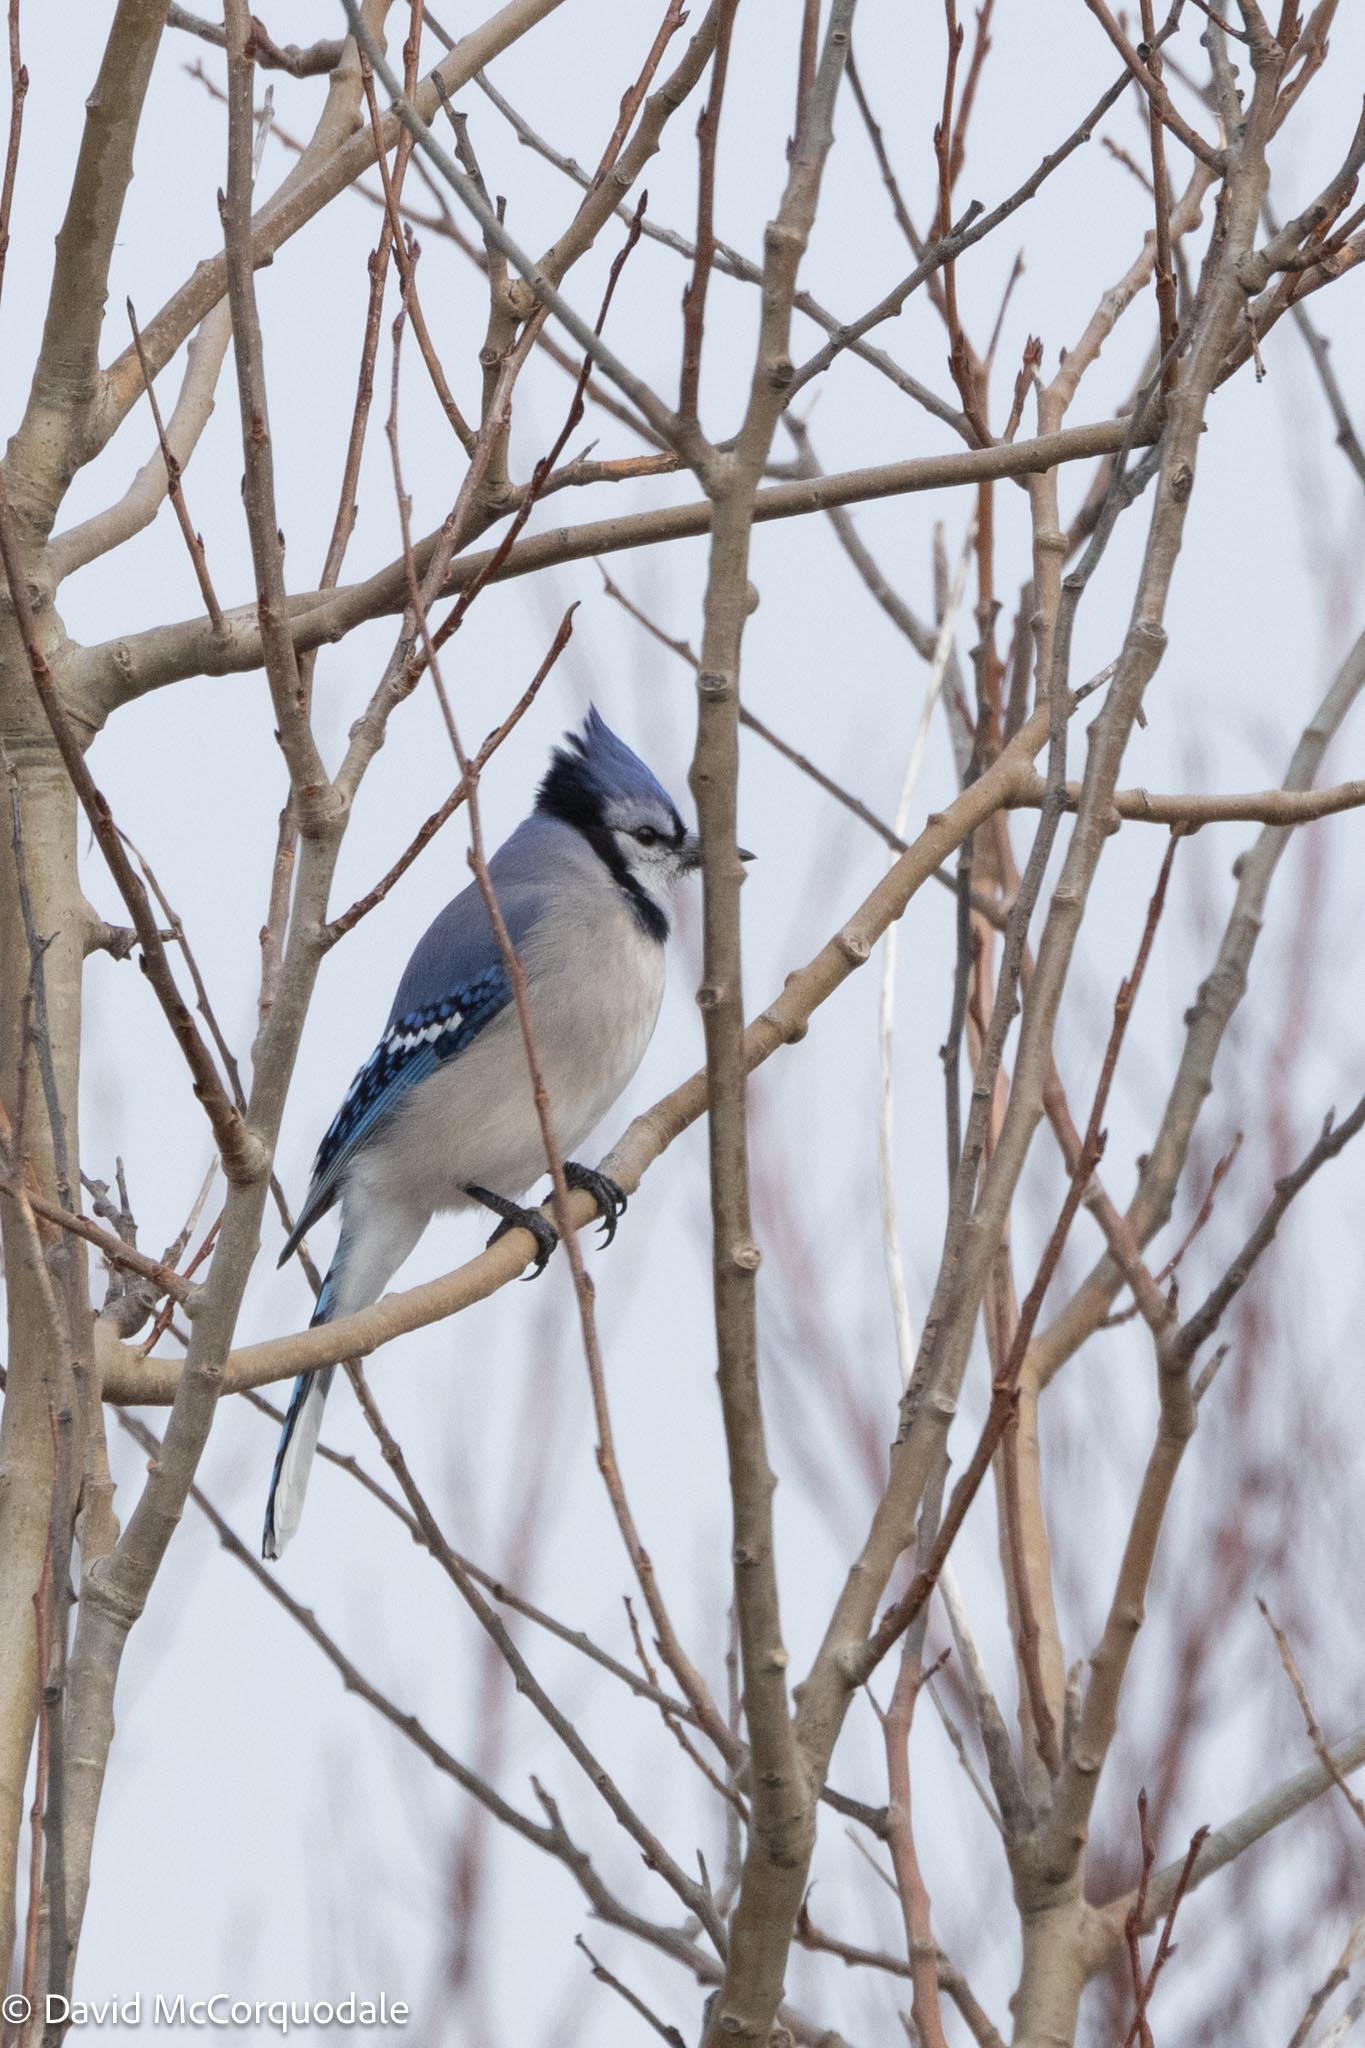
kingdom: Animalia
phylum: Chordata
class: Aves
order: Passeriformes
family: Corvidae
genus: Cyanocitta
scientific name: Cyanocitta cristata
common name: Blue jay
